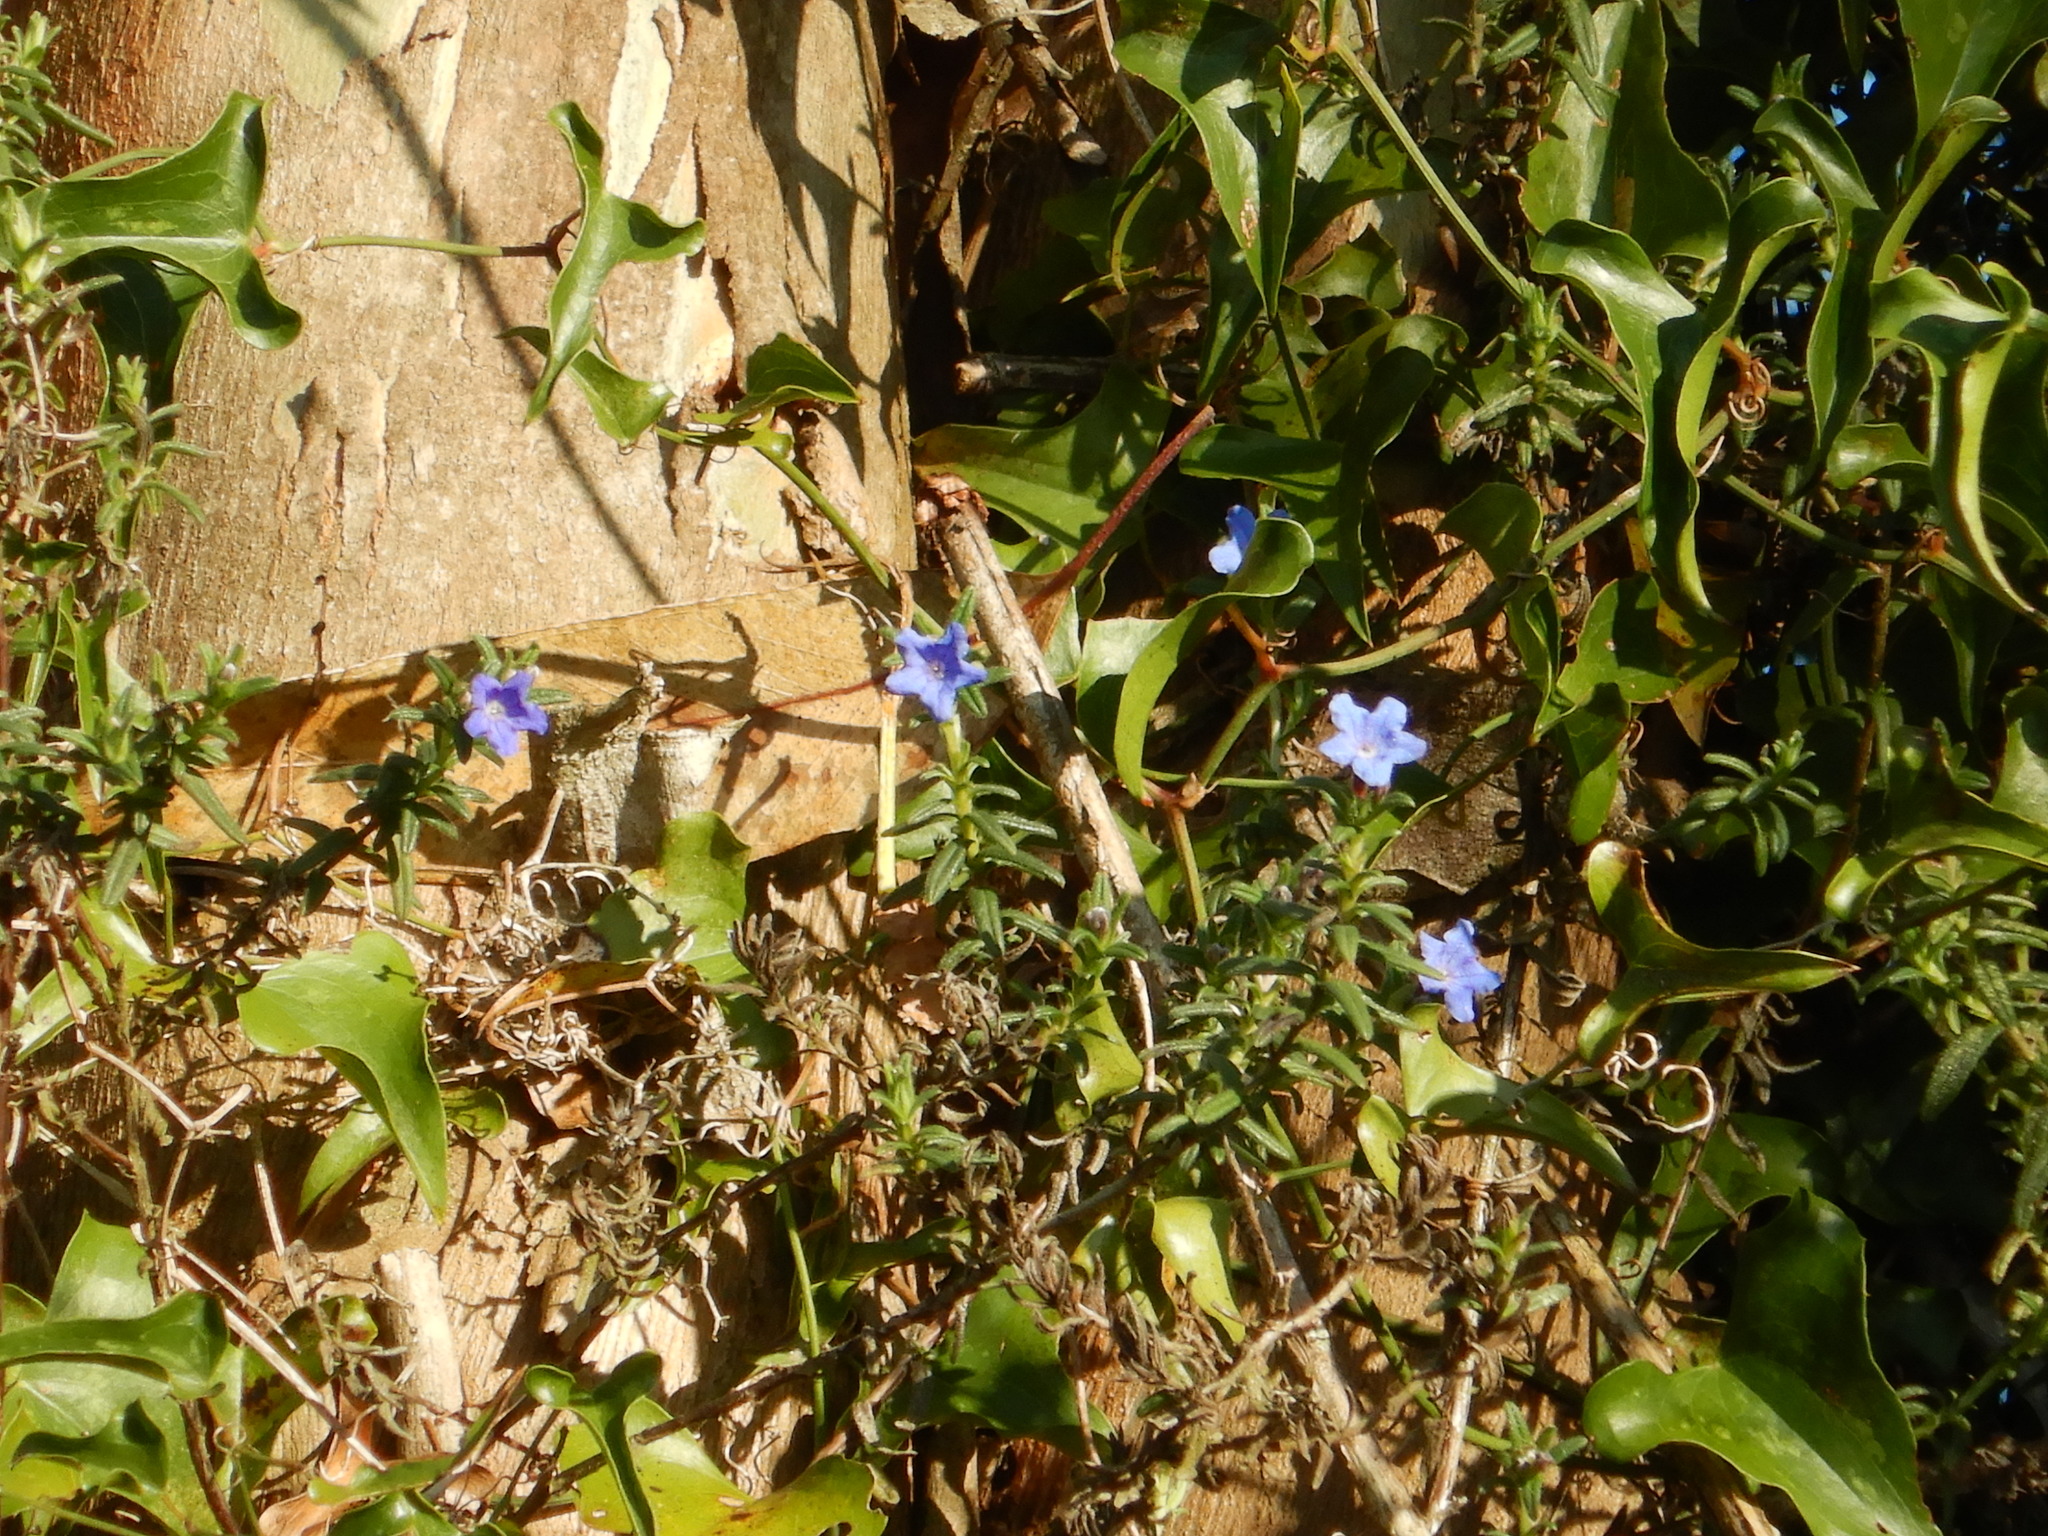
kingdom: Plantae
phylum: Tracheophyta
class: Magnoliopsida
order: Boraginales
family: Boraginaceae
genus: Glandora
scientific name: Glandora prostrata
